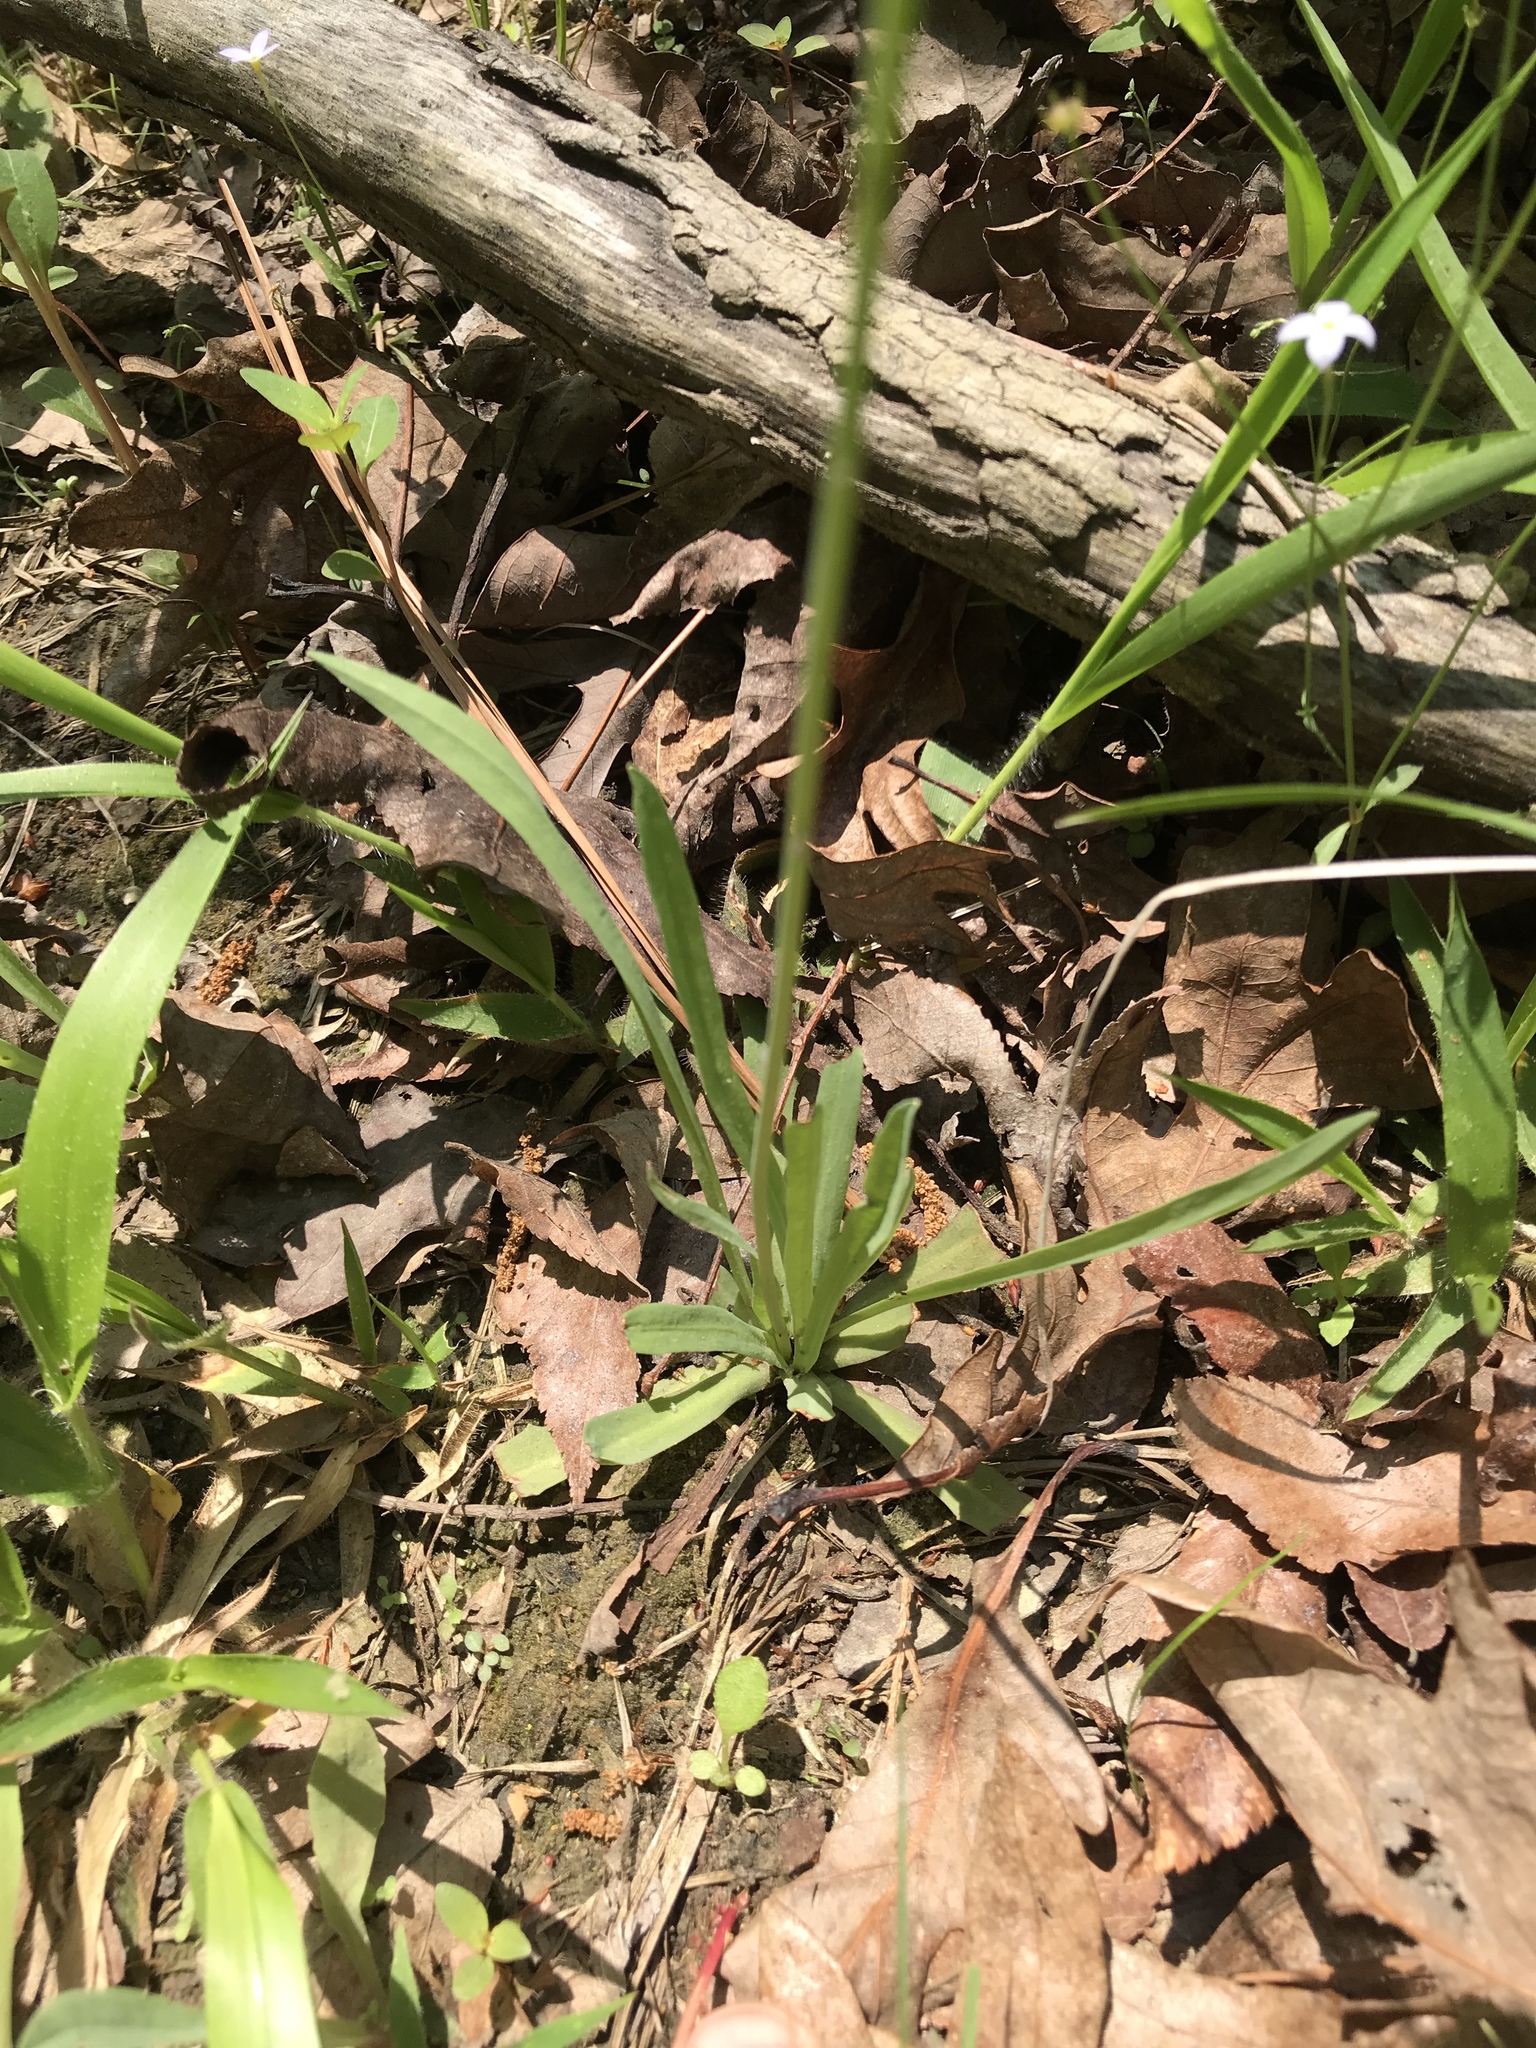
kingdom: Plantae
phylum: Tracheophyta
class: Magnoliopsida
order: Asterales
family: Asteraceae
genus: Krigia
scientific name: Krigia dandelion
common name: Colonial dwarf-dandelion
